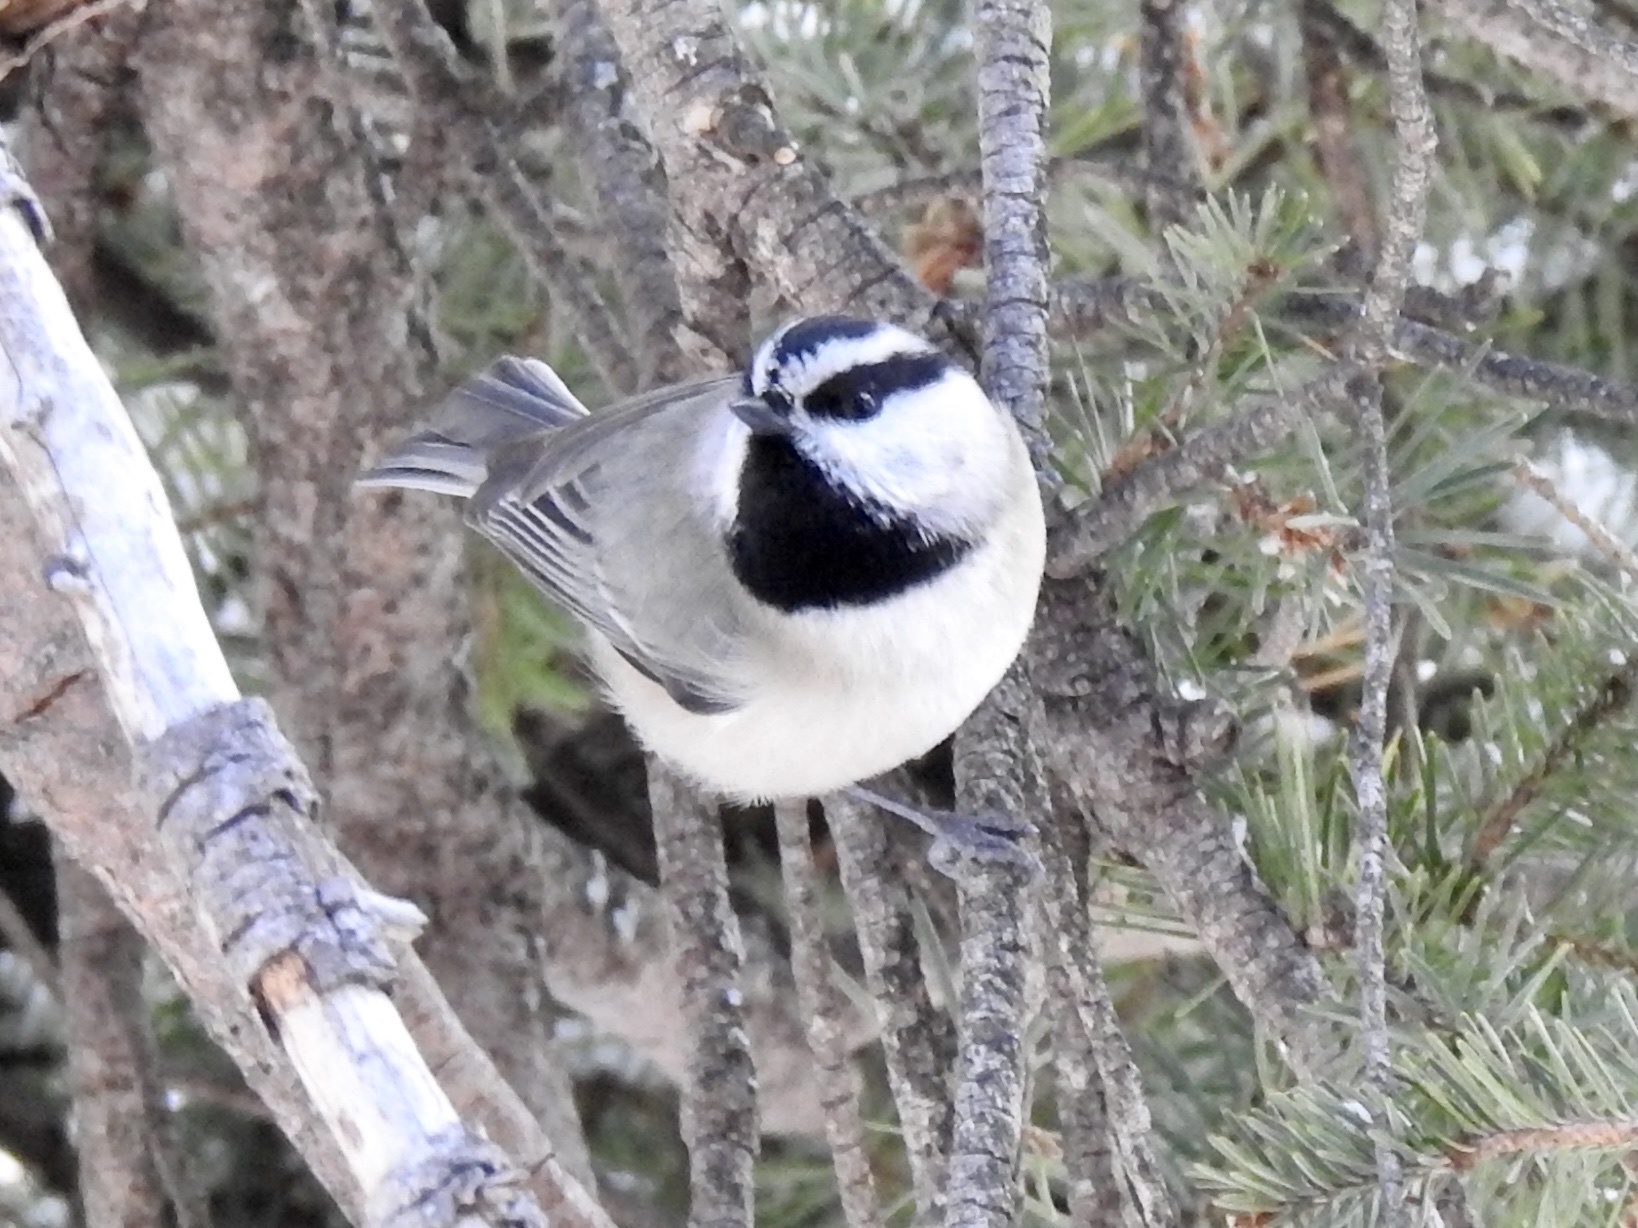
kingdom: Animalia
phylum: Chordata
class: Aves
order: Passeriformes
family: Paridae
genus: Poecile
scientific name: Poecile gambeli
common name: Mountain chickadee
